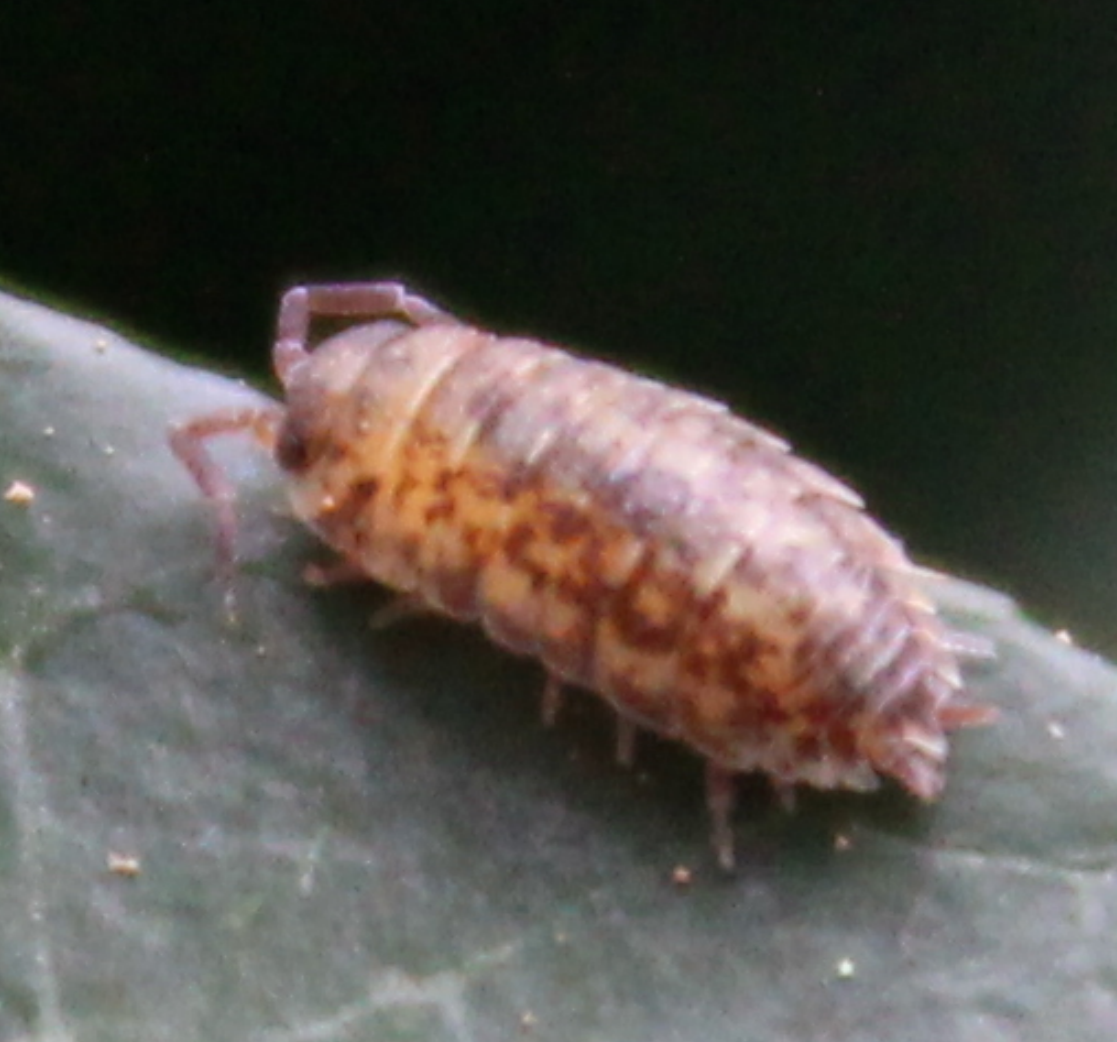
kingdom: Animalia
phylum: Arthropoda
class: Malacostraca
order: Isopoda
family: Porcellionidae
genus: Porcellio
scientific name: Porcellio scaber
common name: Common rough woodlouse
